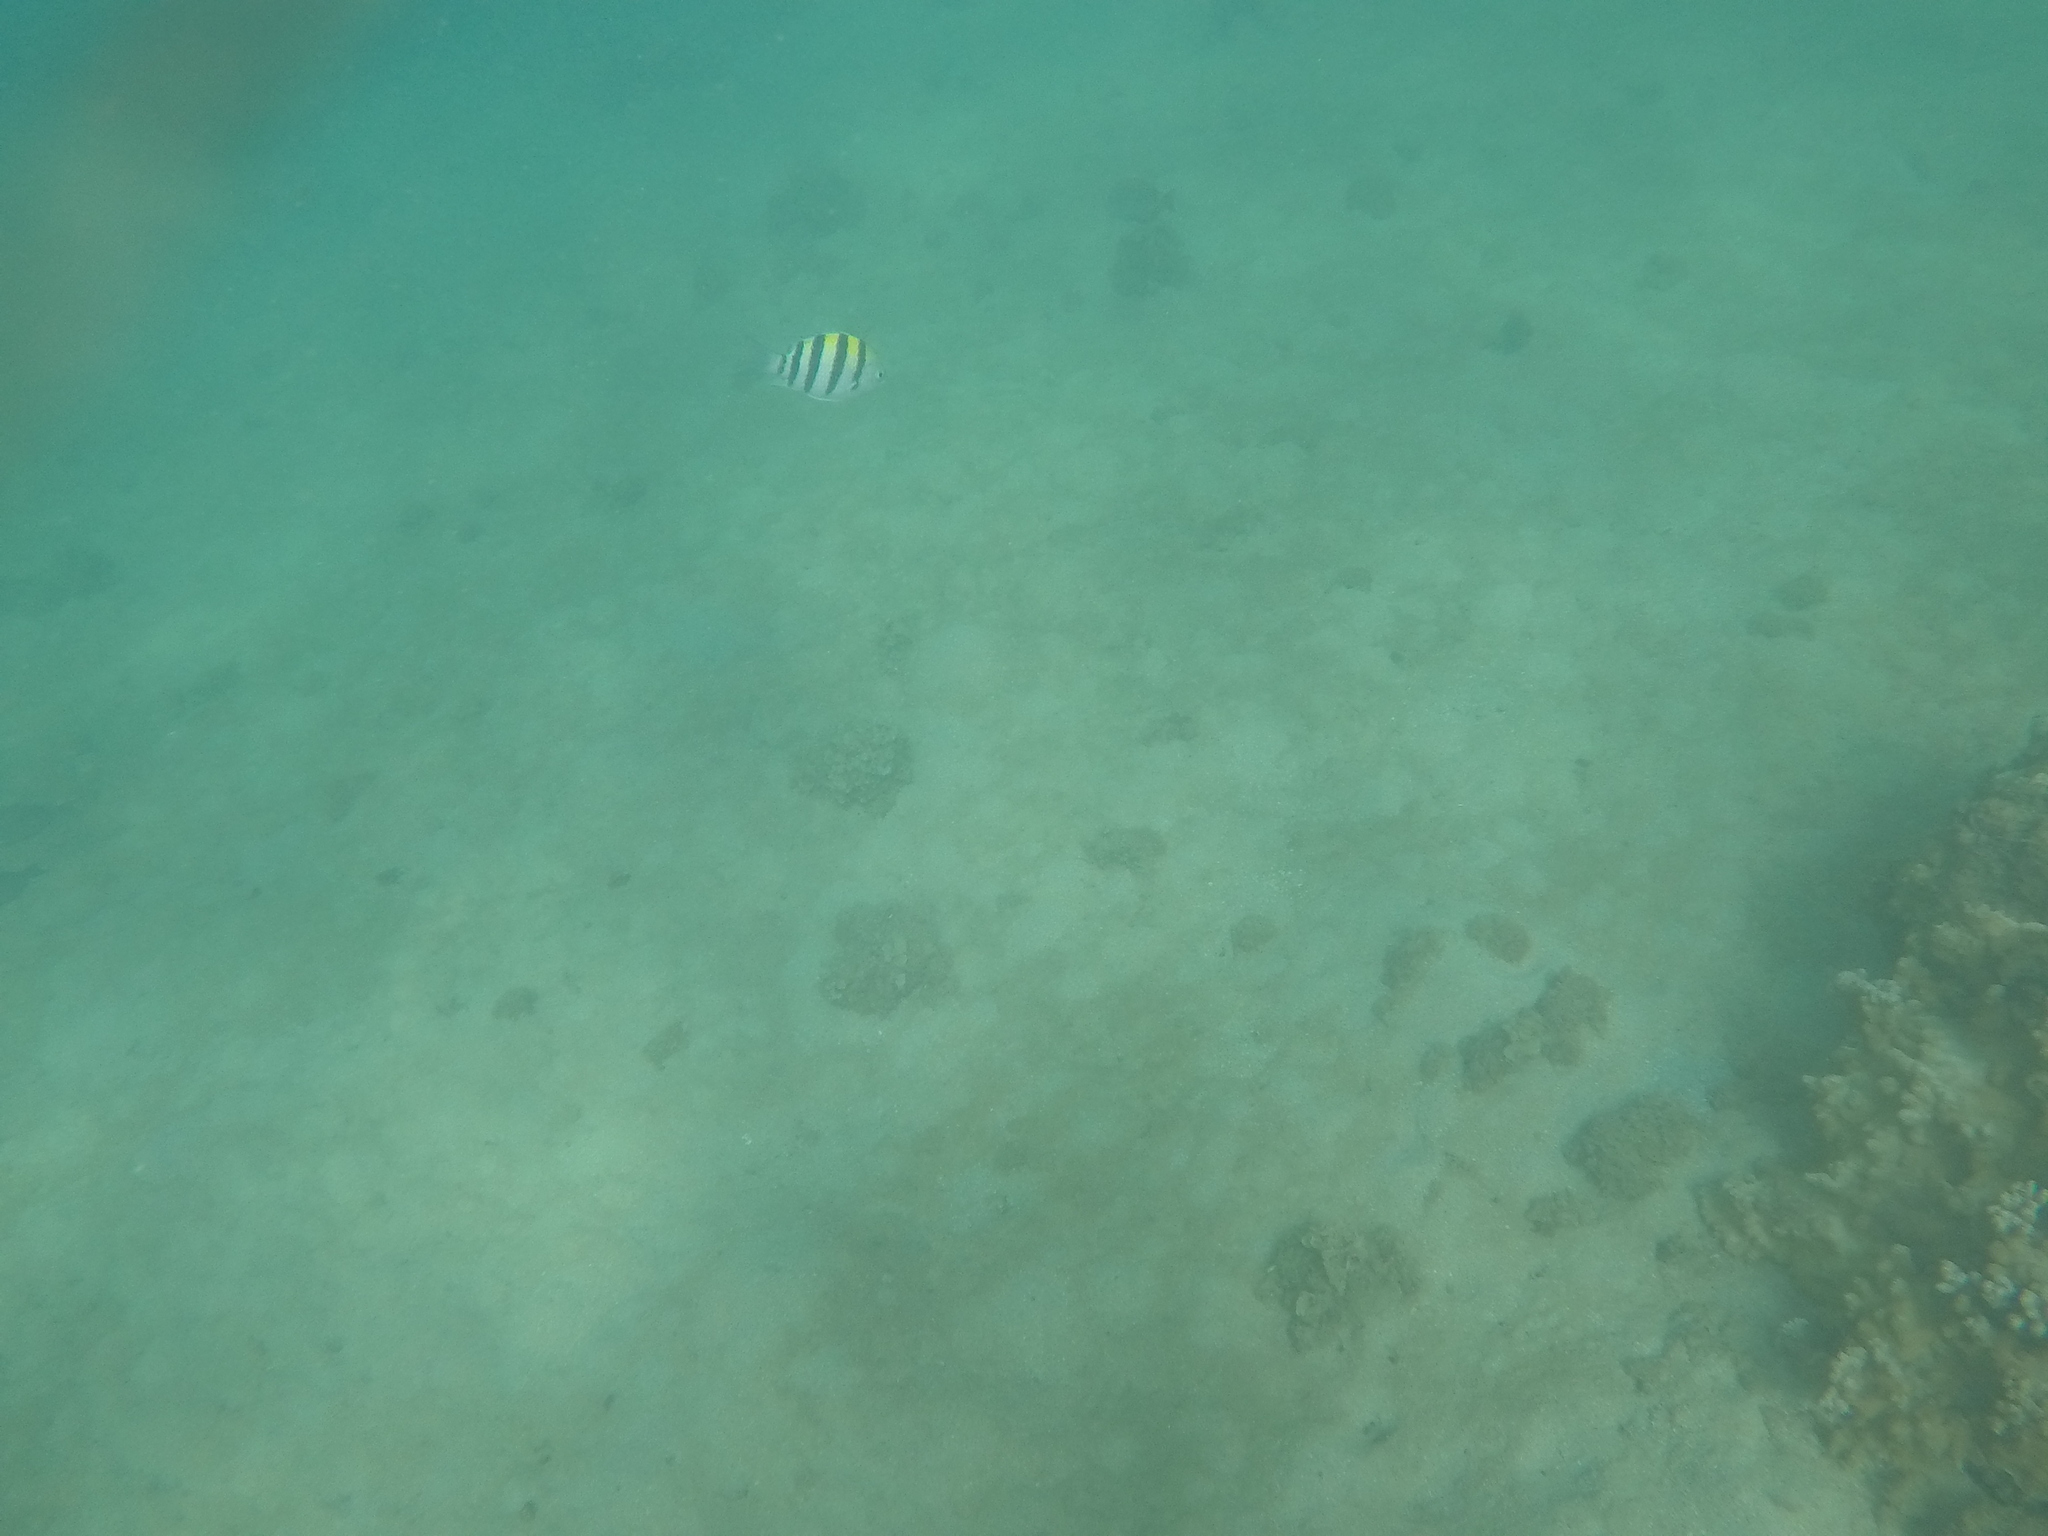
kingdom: Animalia
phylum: Chordata
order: Perciformes
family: Pomacentridae
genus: Abudefduf
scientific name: Abudefduf vaigiensis
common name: Indo-pacific sergeant
